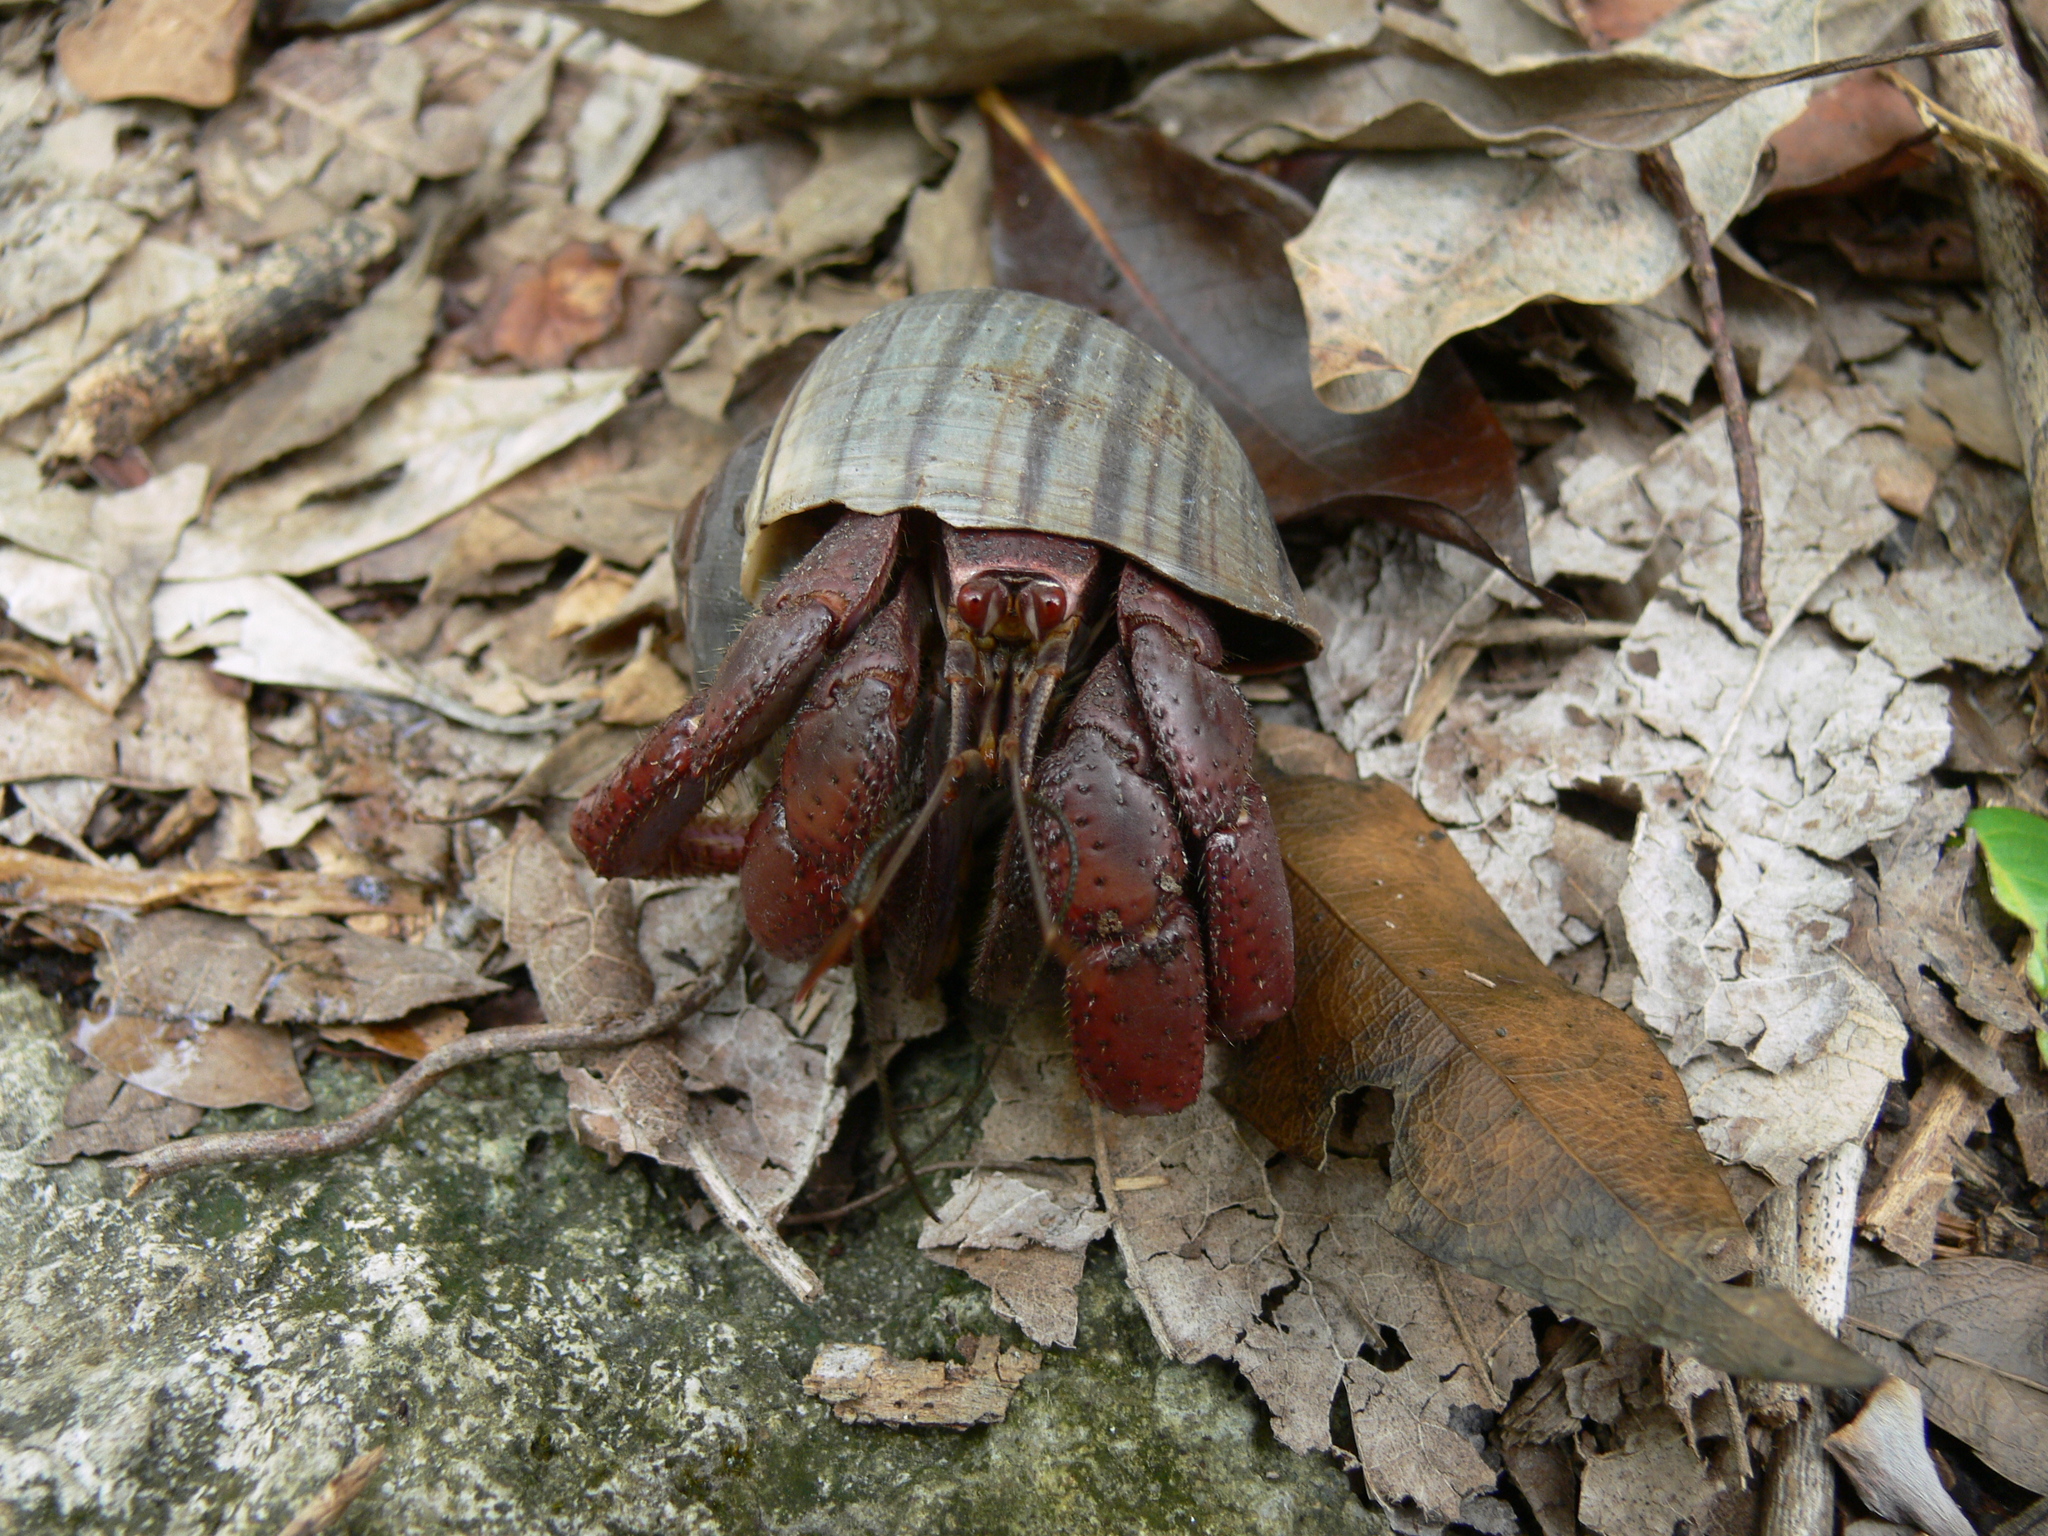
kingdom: Animalia
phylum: Arthropoda
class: Malacostraca
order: Decapoda
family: Coenobitidae
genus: Coenobita
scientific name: Coenobita clypeatus
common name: Caribbean hermit crab
